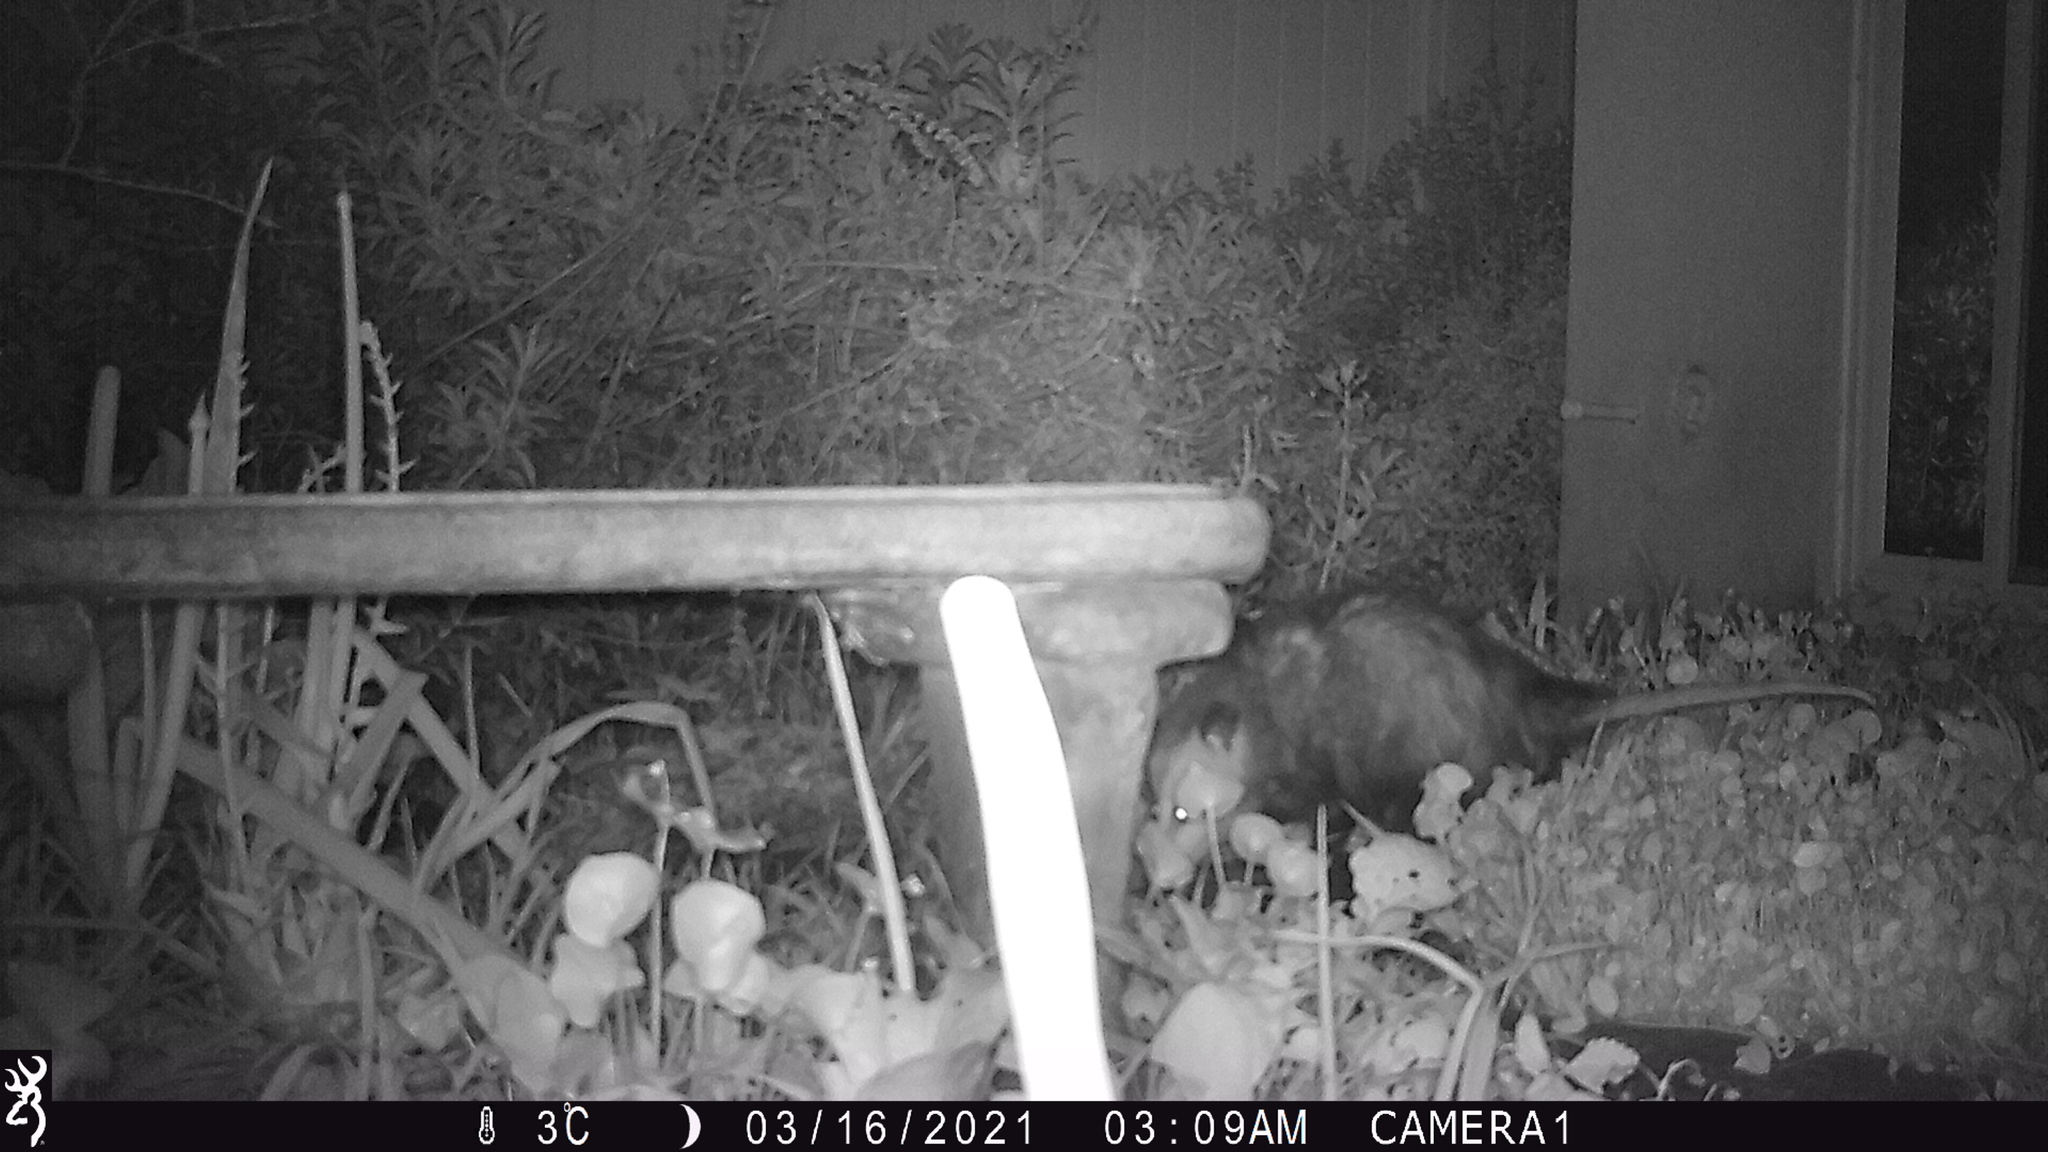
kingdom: Animalia
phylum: Chordata
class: Mammalia
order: Didelphimorphia
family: Didelphidae
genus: Didelphis
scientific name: Didelphis virginiana
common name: Virginia opossum
